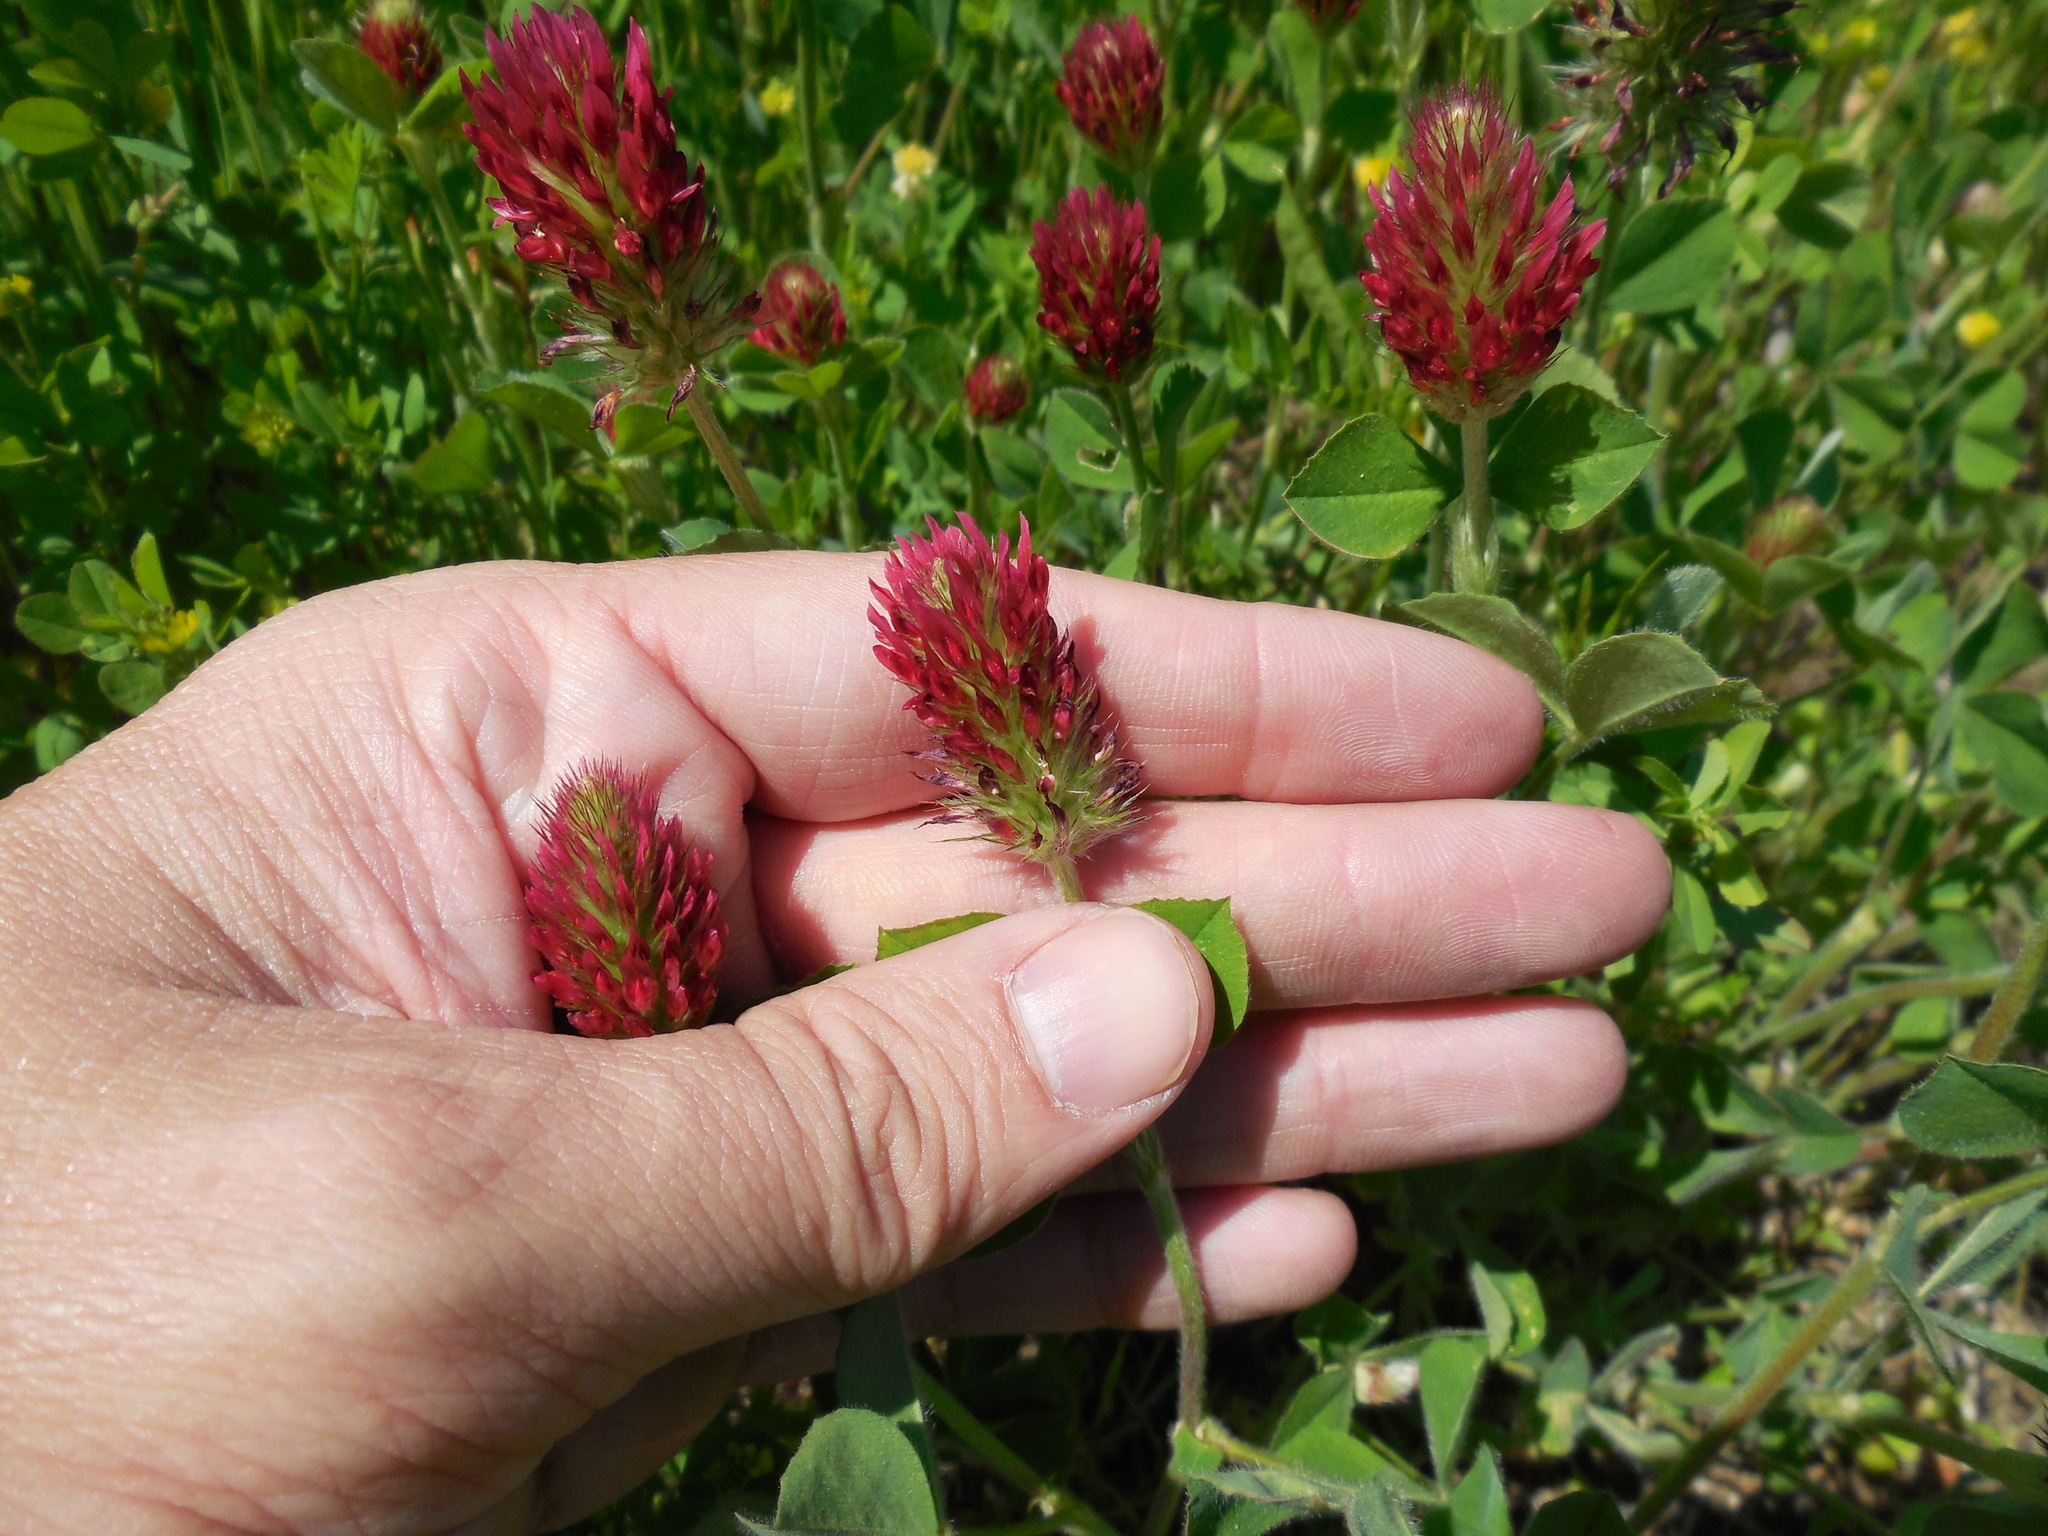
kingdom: Plantae
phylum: Tracheophyta
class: Magnoliopsida
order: Fabales
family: Fabaceae
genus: Trifolium
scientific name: Trifolium incarnatum
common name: Crimson clover
